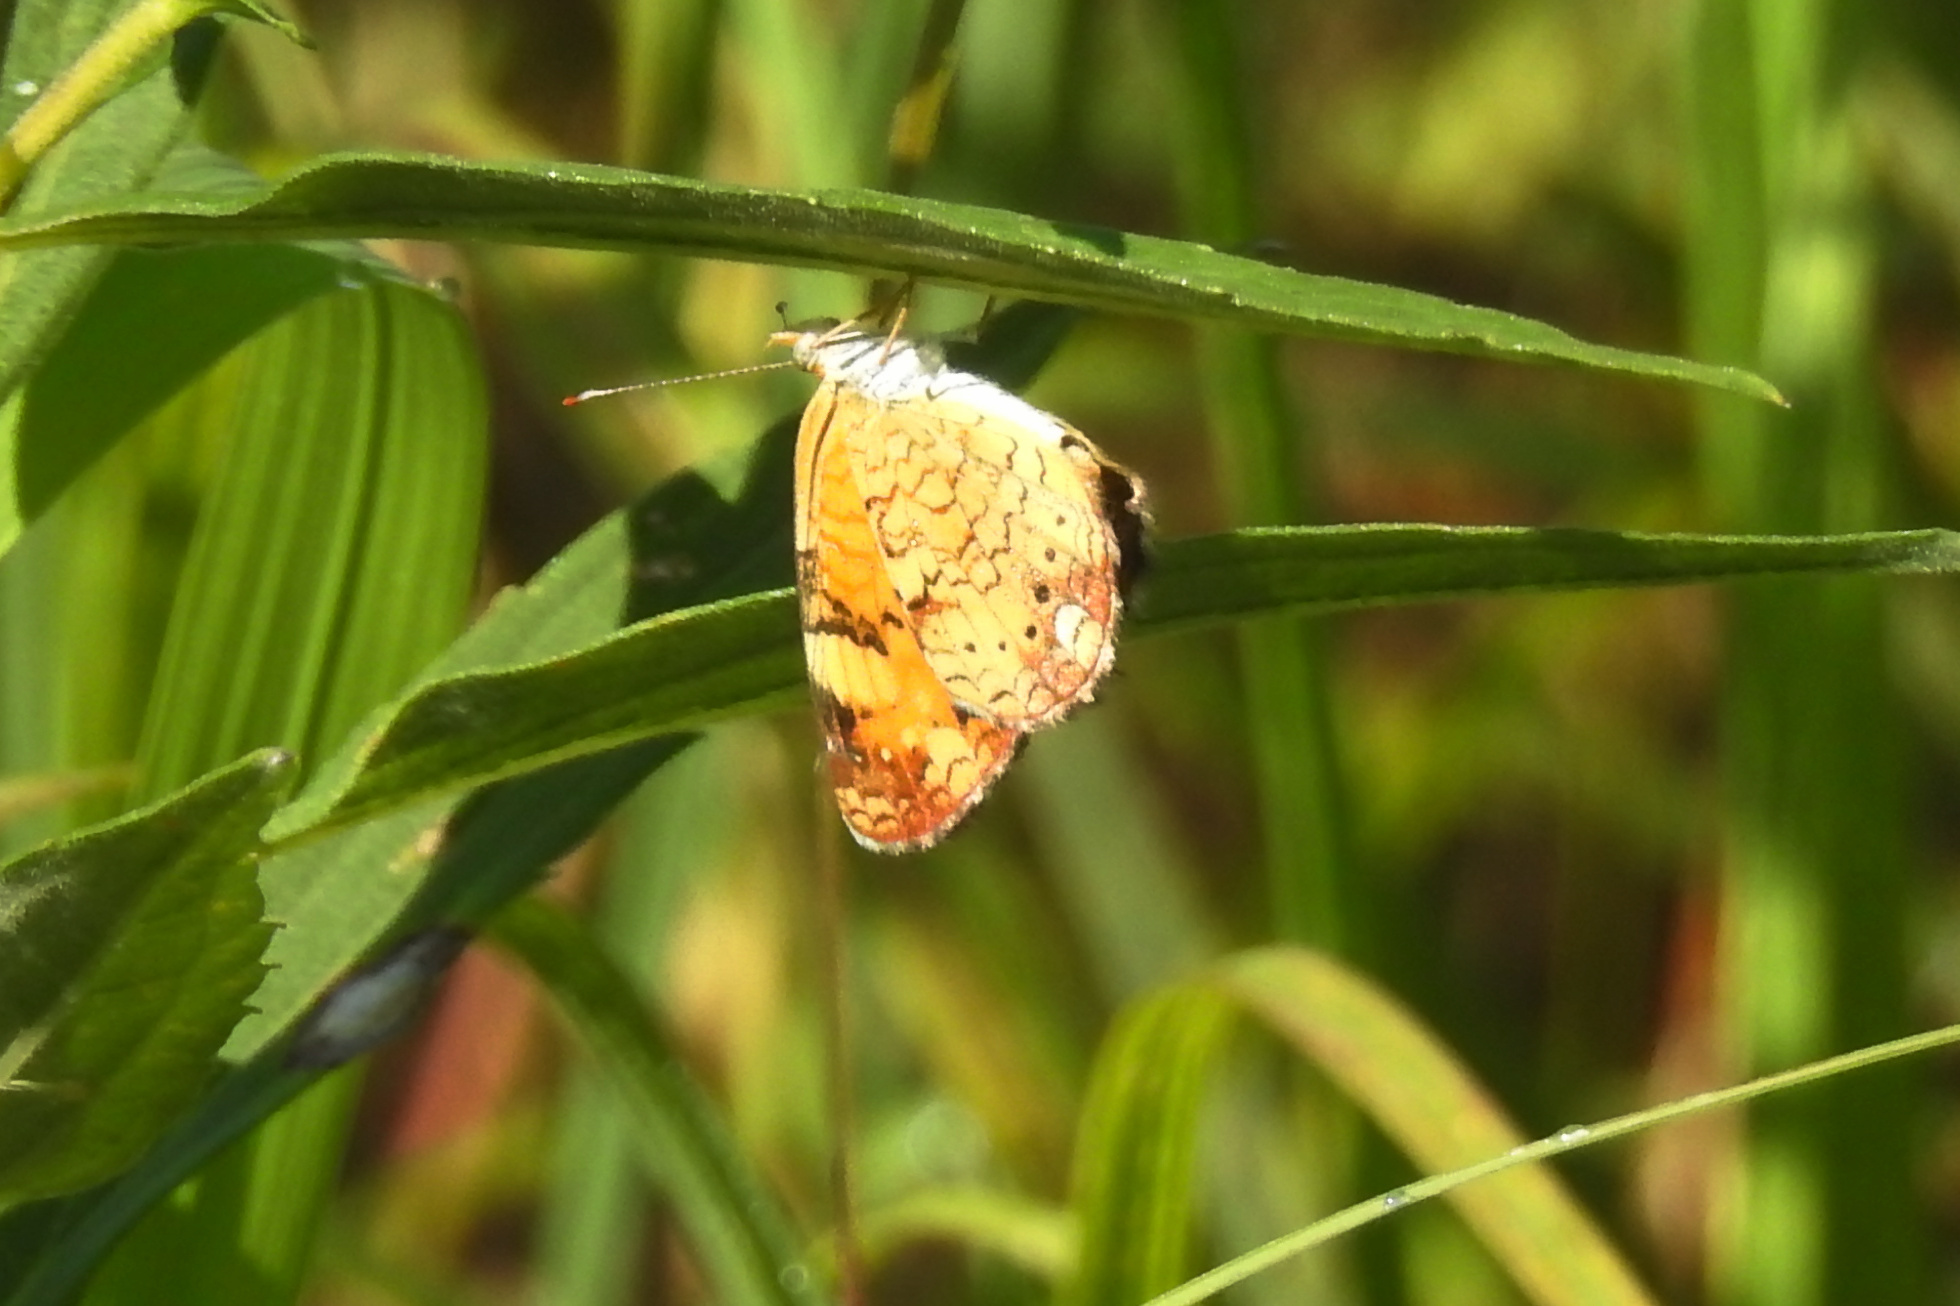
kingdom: Animalia
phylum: Arthropoda
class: Insecta
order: Lepidoptera
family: Nymphalidae
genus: Phyciodes
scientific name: Phyciodes tharos
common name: Pearl crescent
